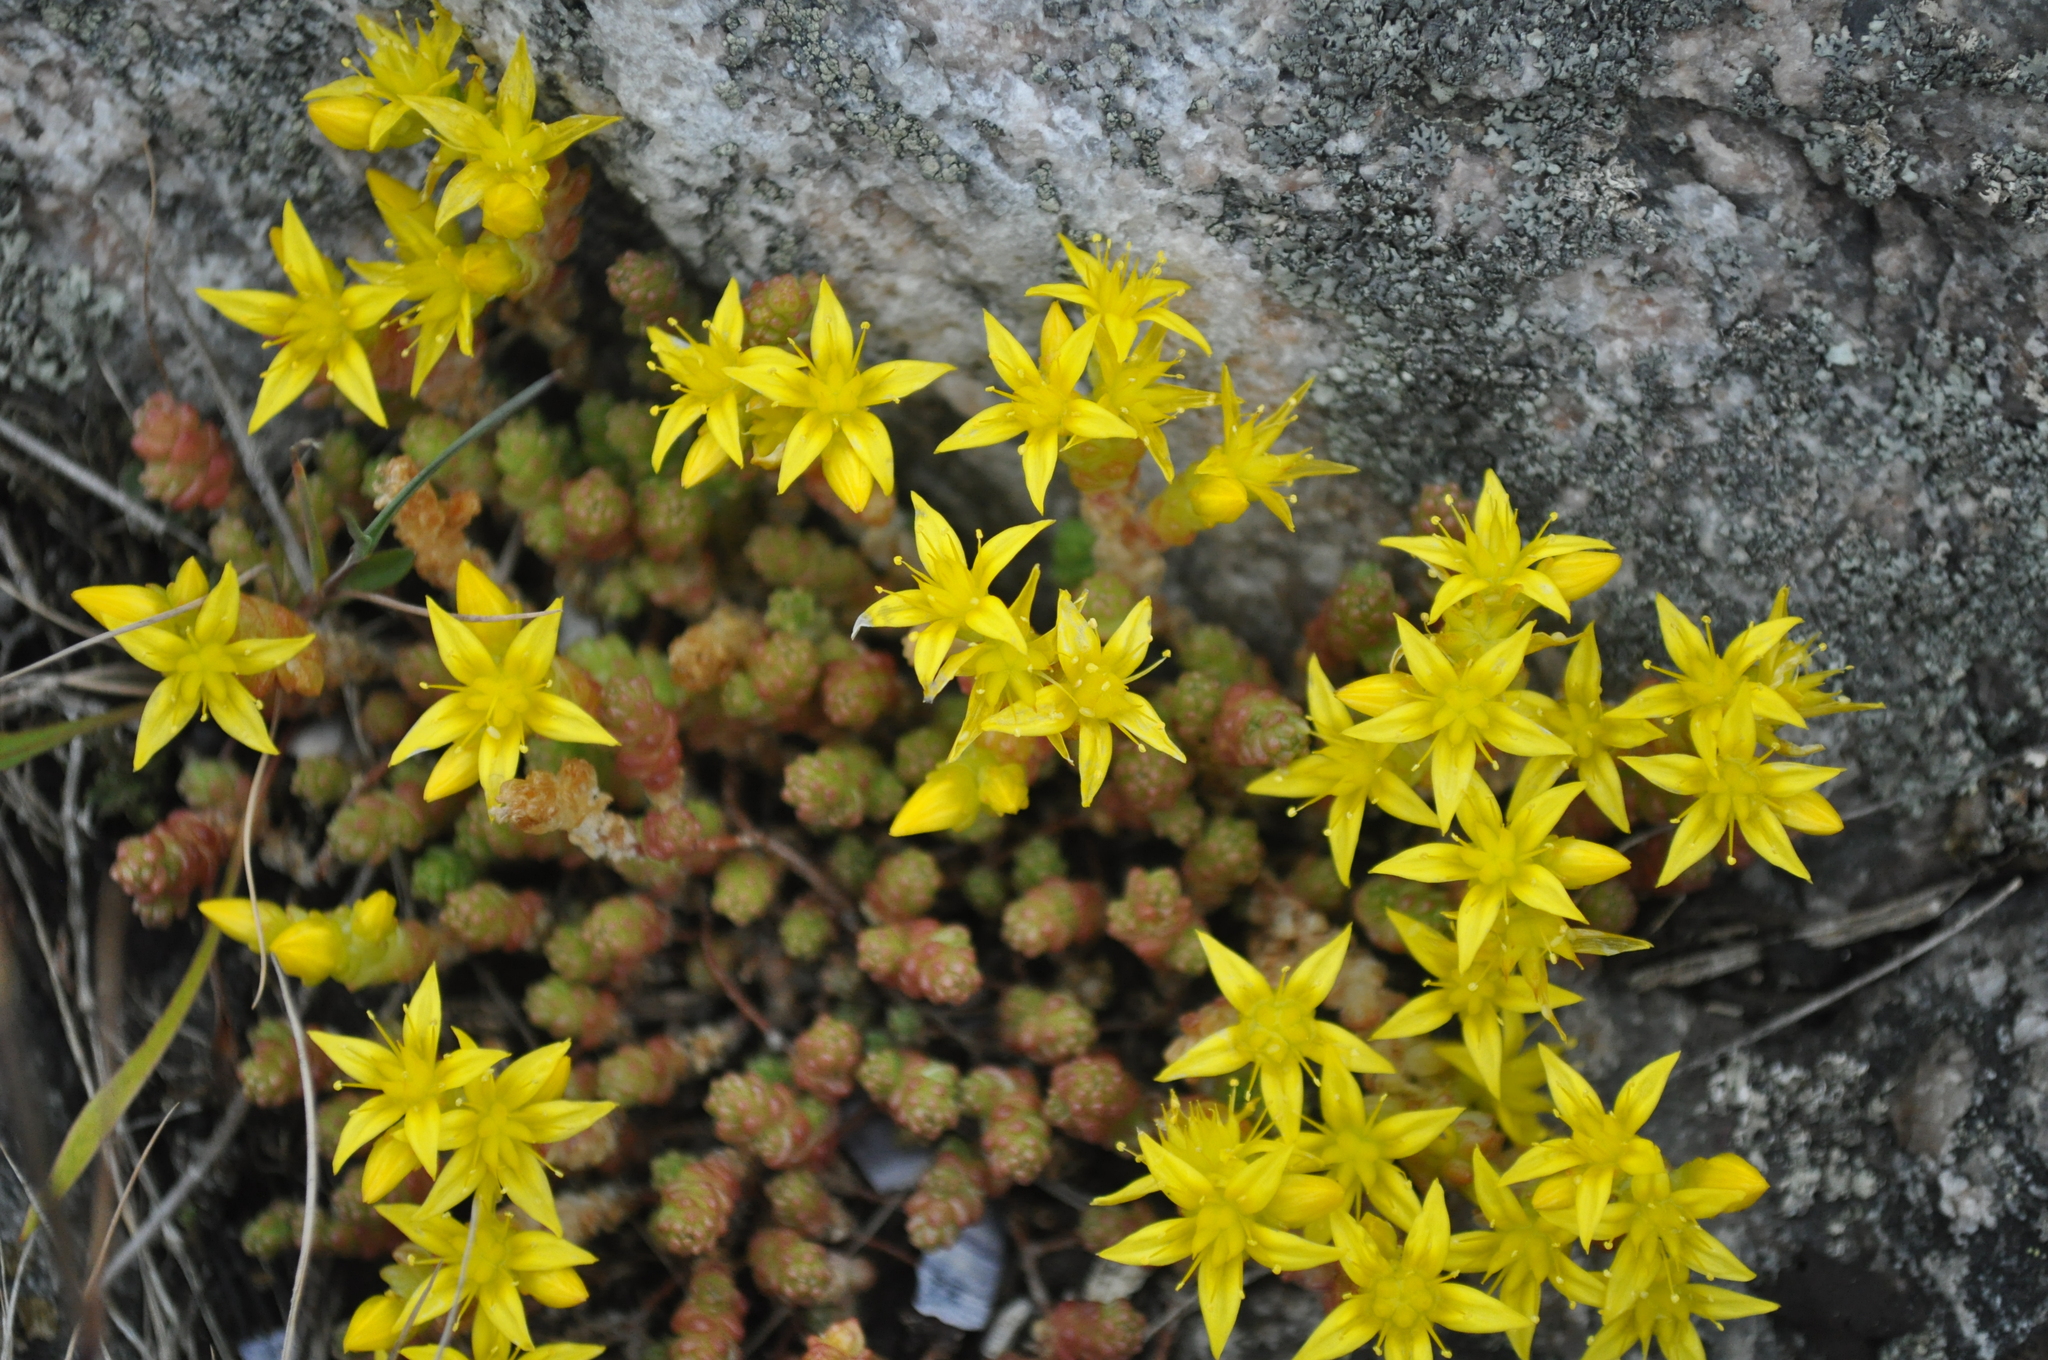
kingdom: Plantae
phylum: Tracheophyta
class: Magnoliopsida
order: Saxifragales
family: Crassulaceae
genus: Sedum
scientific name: Sedum acre
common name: Biting stonecrop
